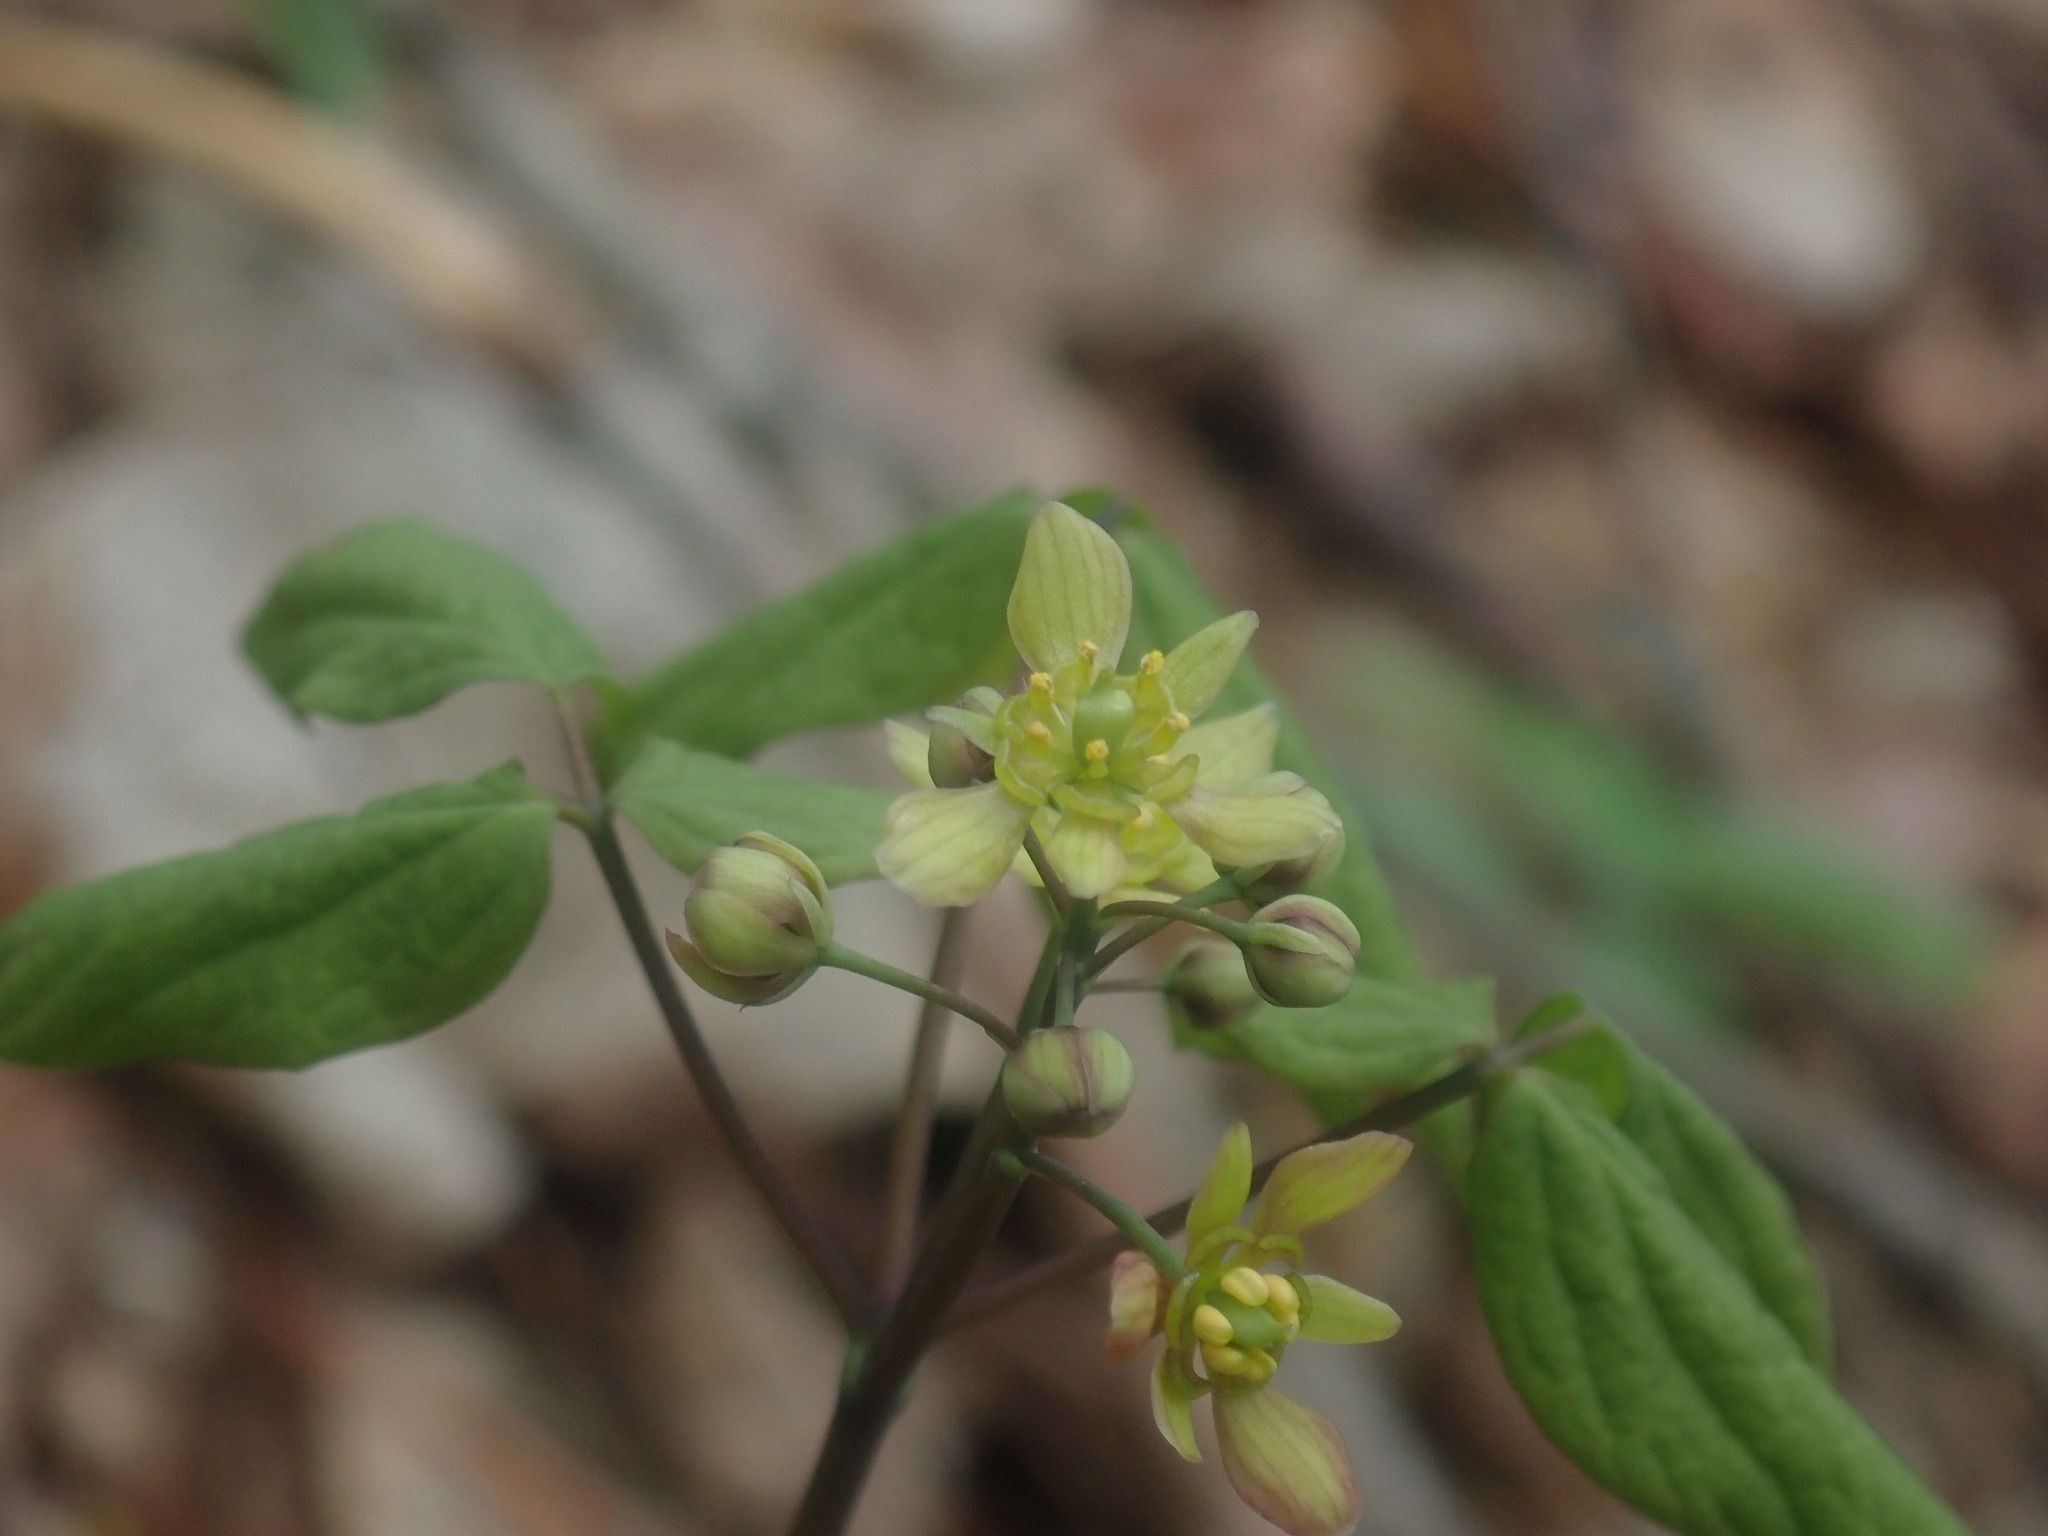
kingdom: Plantae
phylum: Tracheophyta
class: Magnoliopsida
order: Ranunculales
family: Berberidaceae
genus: Caulophyllum
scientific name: Caulophyllum thalictroides
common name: Blue cohosh
